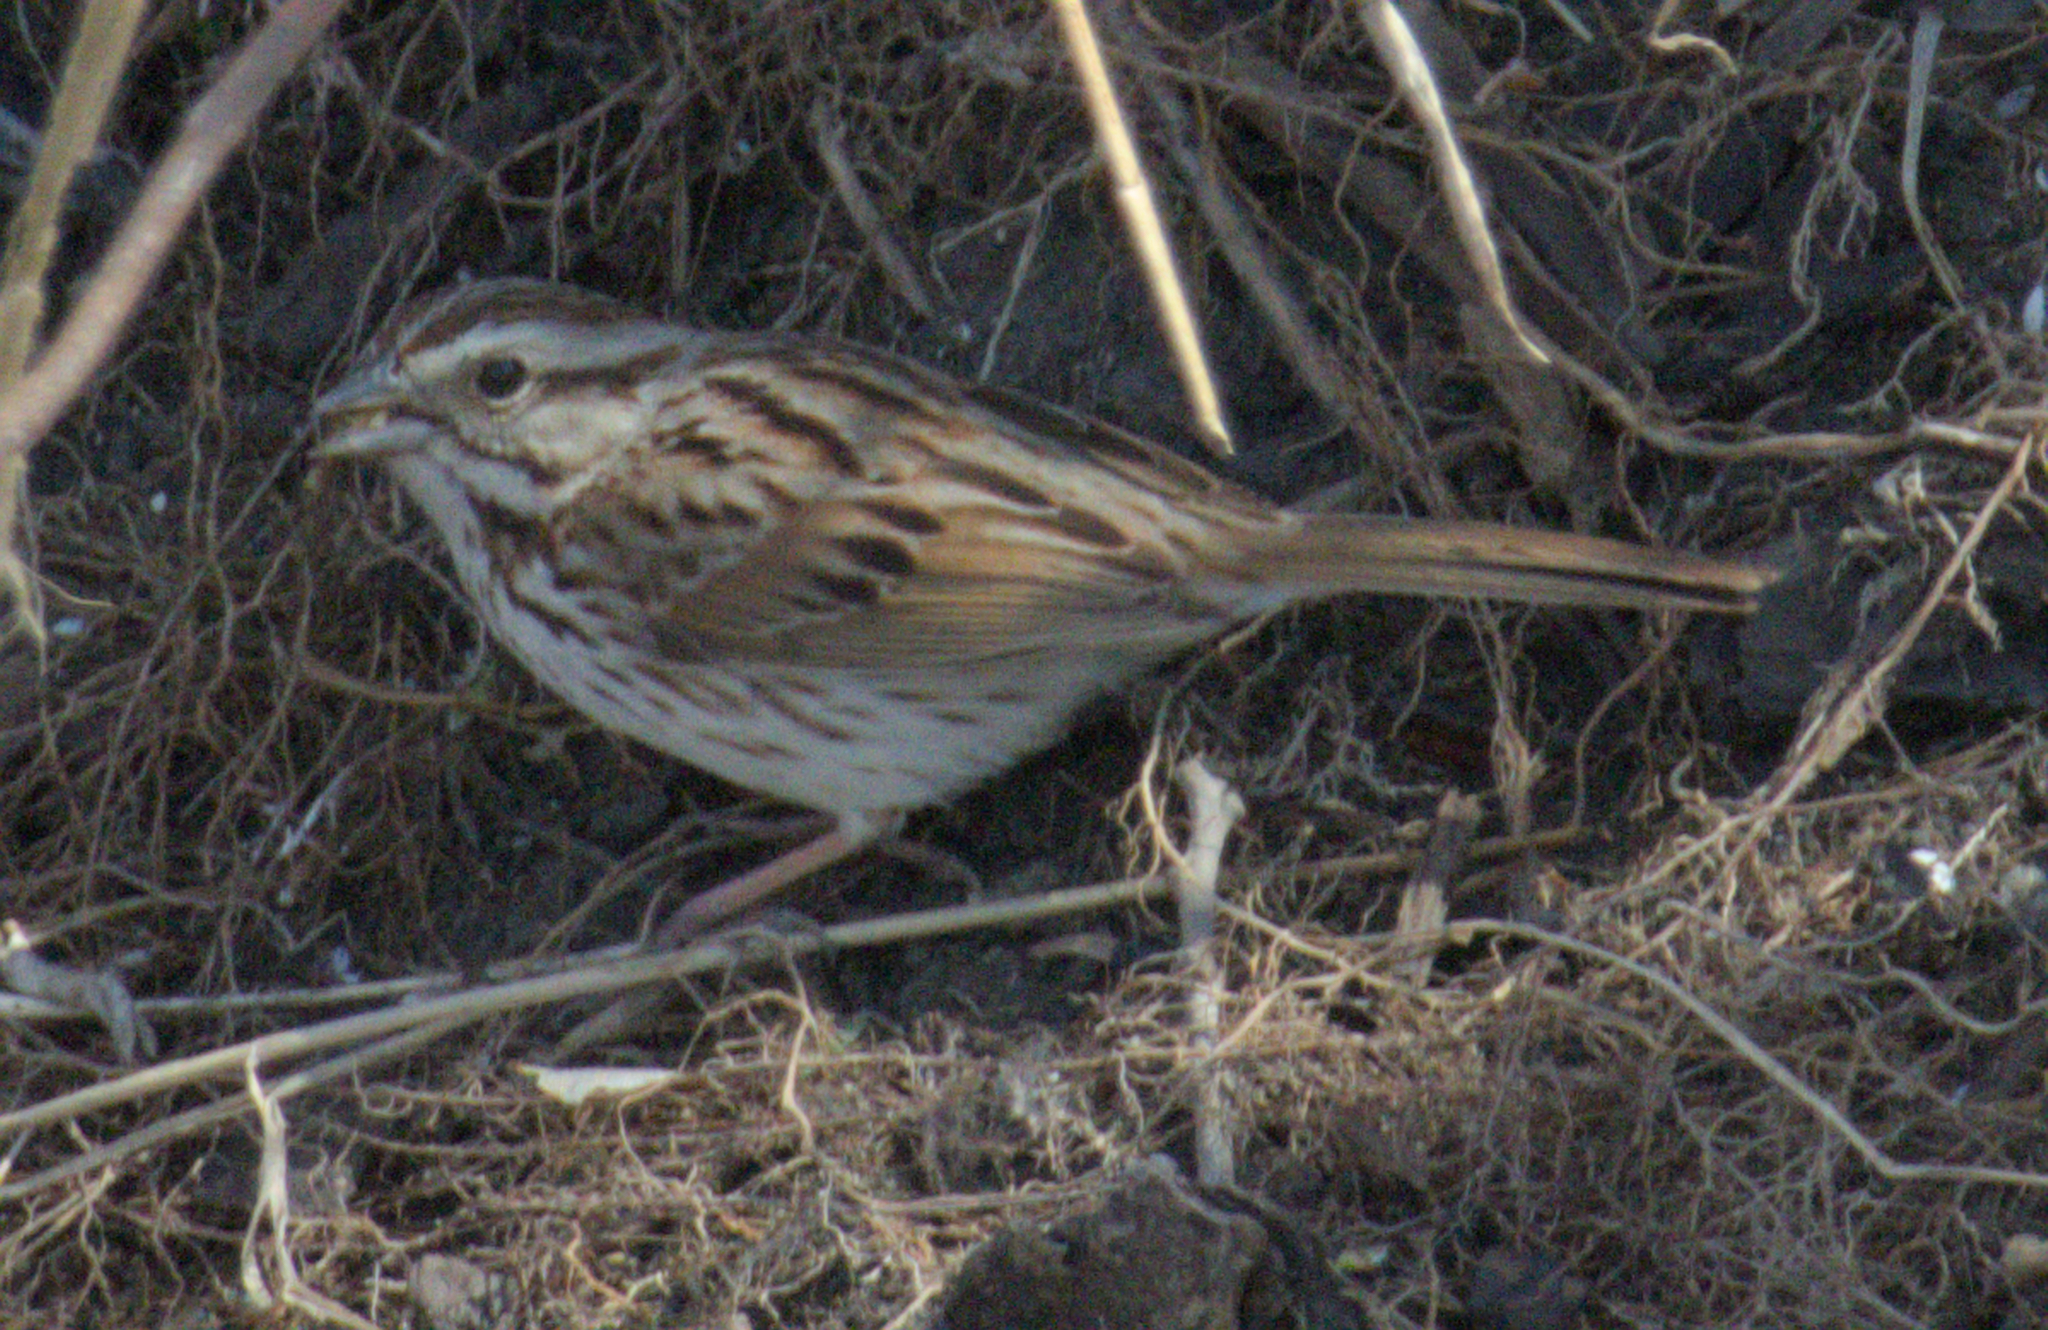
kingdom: Animalia
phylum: Chordata
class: Aves
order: Passeriformes
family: Passerellidae
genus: Melospiza
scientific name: Melospiza melodia
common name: Song sparrow
